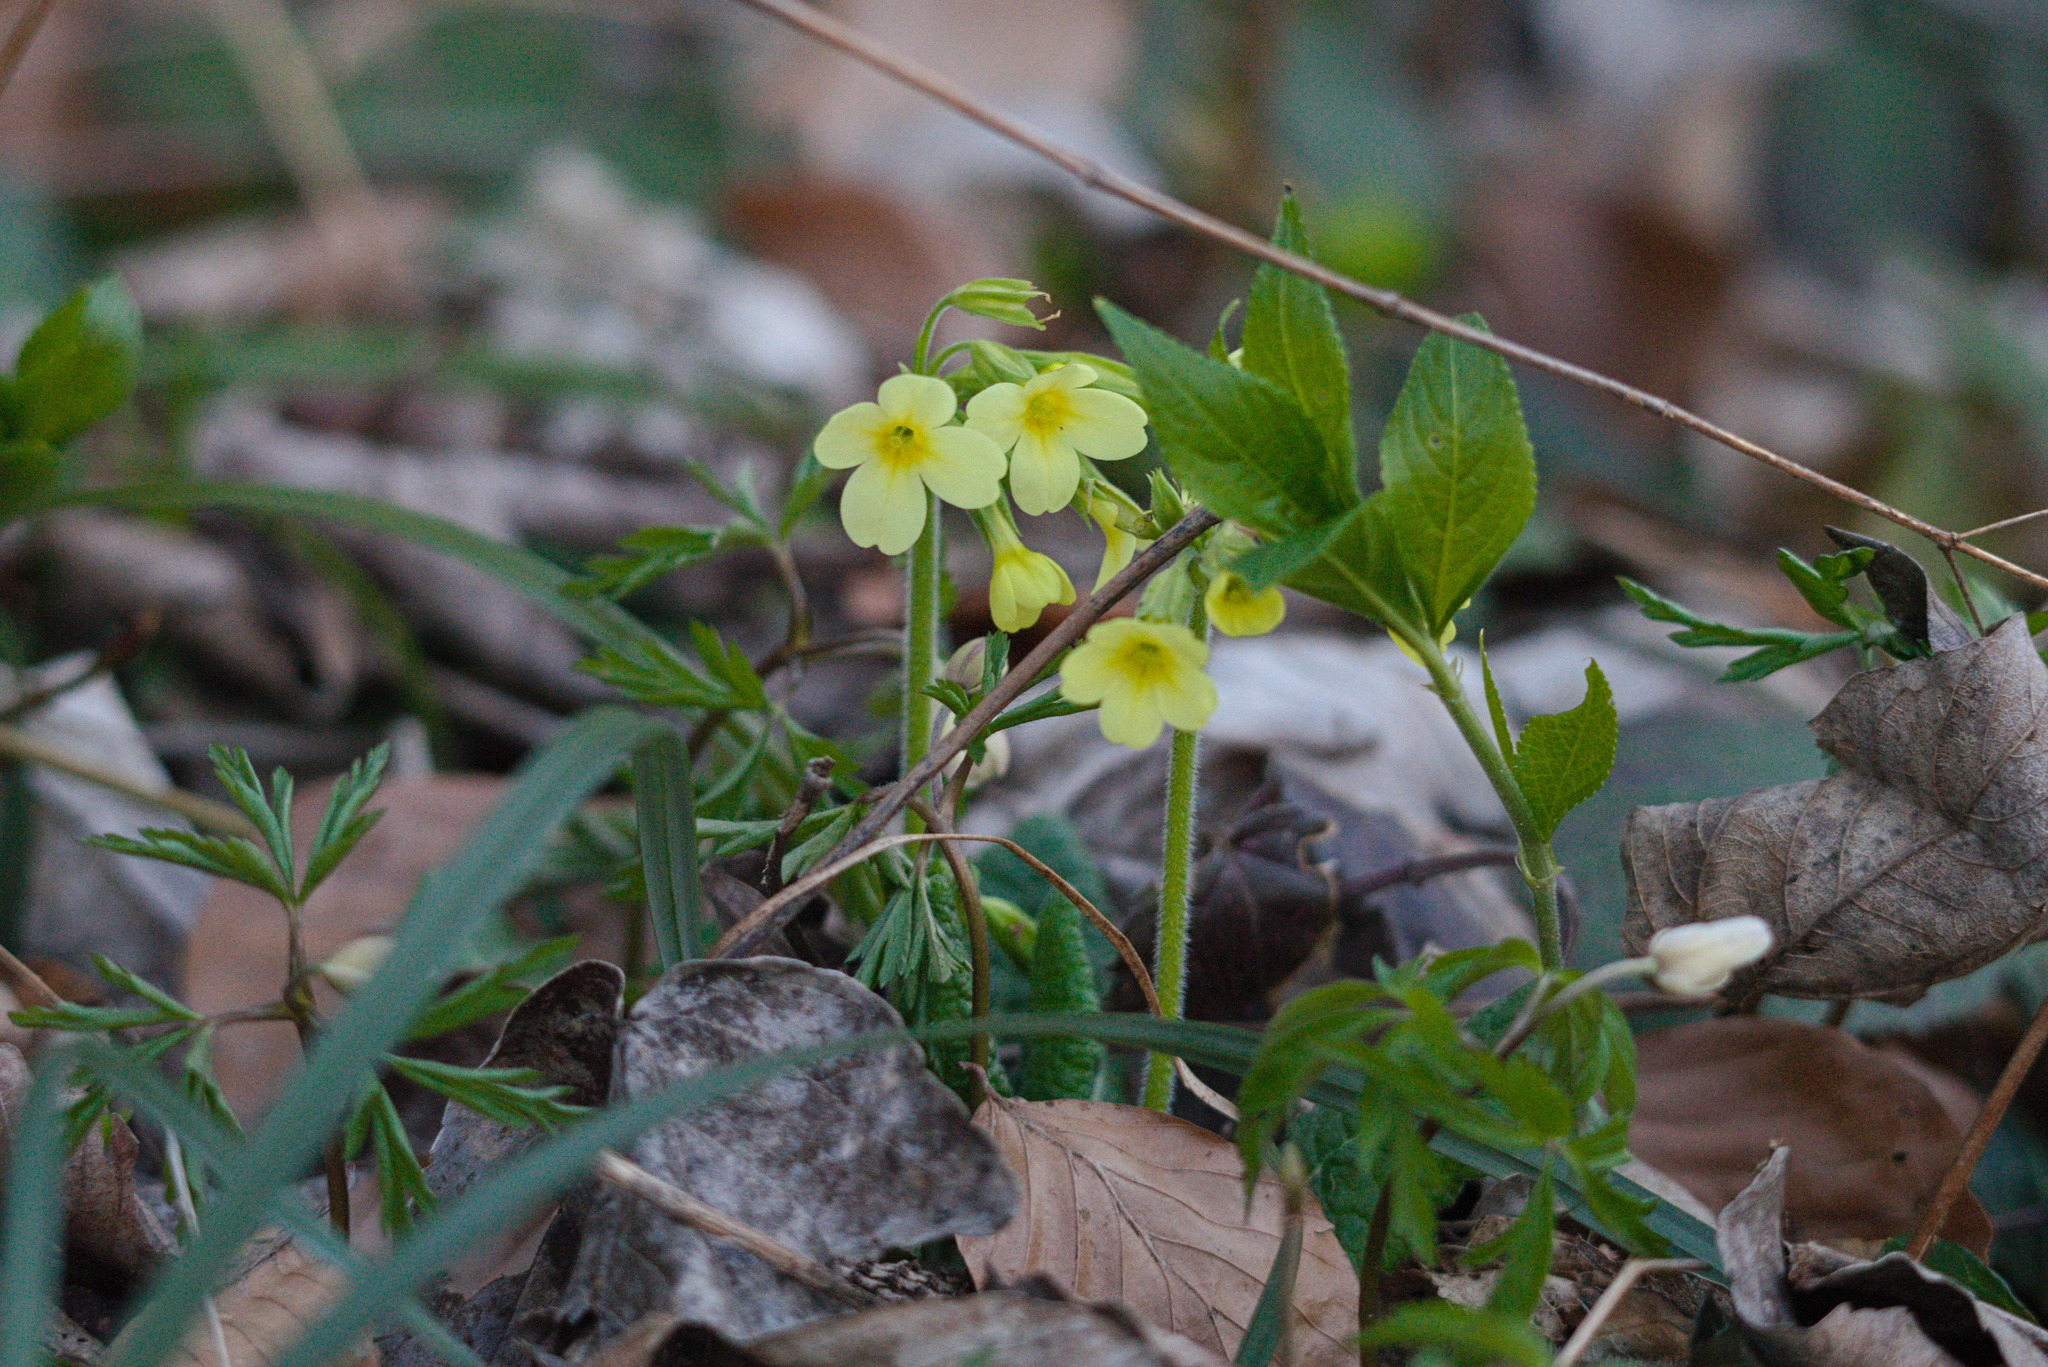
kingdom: Plantae
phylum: Tracheophyta
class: Magnoliopsida
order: Ericales
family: Primulaceae
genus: Primula
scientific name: Primula elatior
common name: Oxlip
